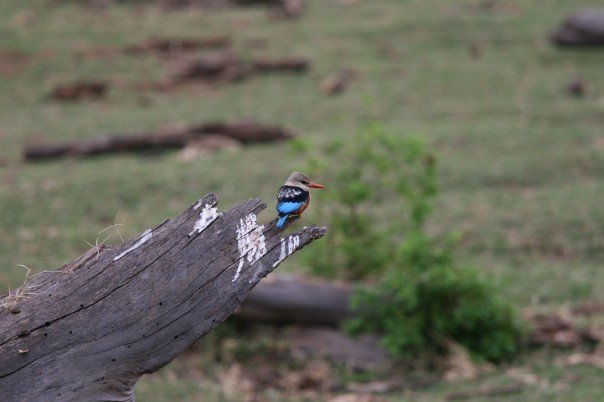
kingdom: Animalia
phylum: Chordata
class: Aves
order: Coraciiformes
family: Alcedinidae
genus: Halcyon
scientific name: Halcyon leucocephala
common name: Grey-headed kingfisher
